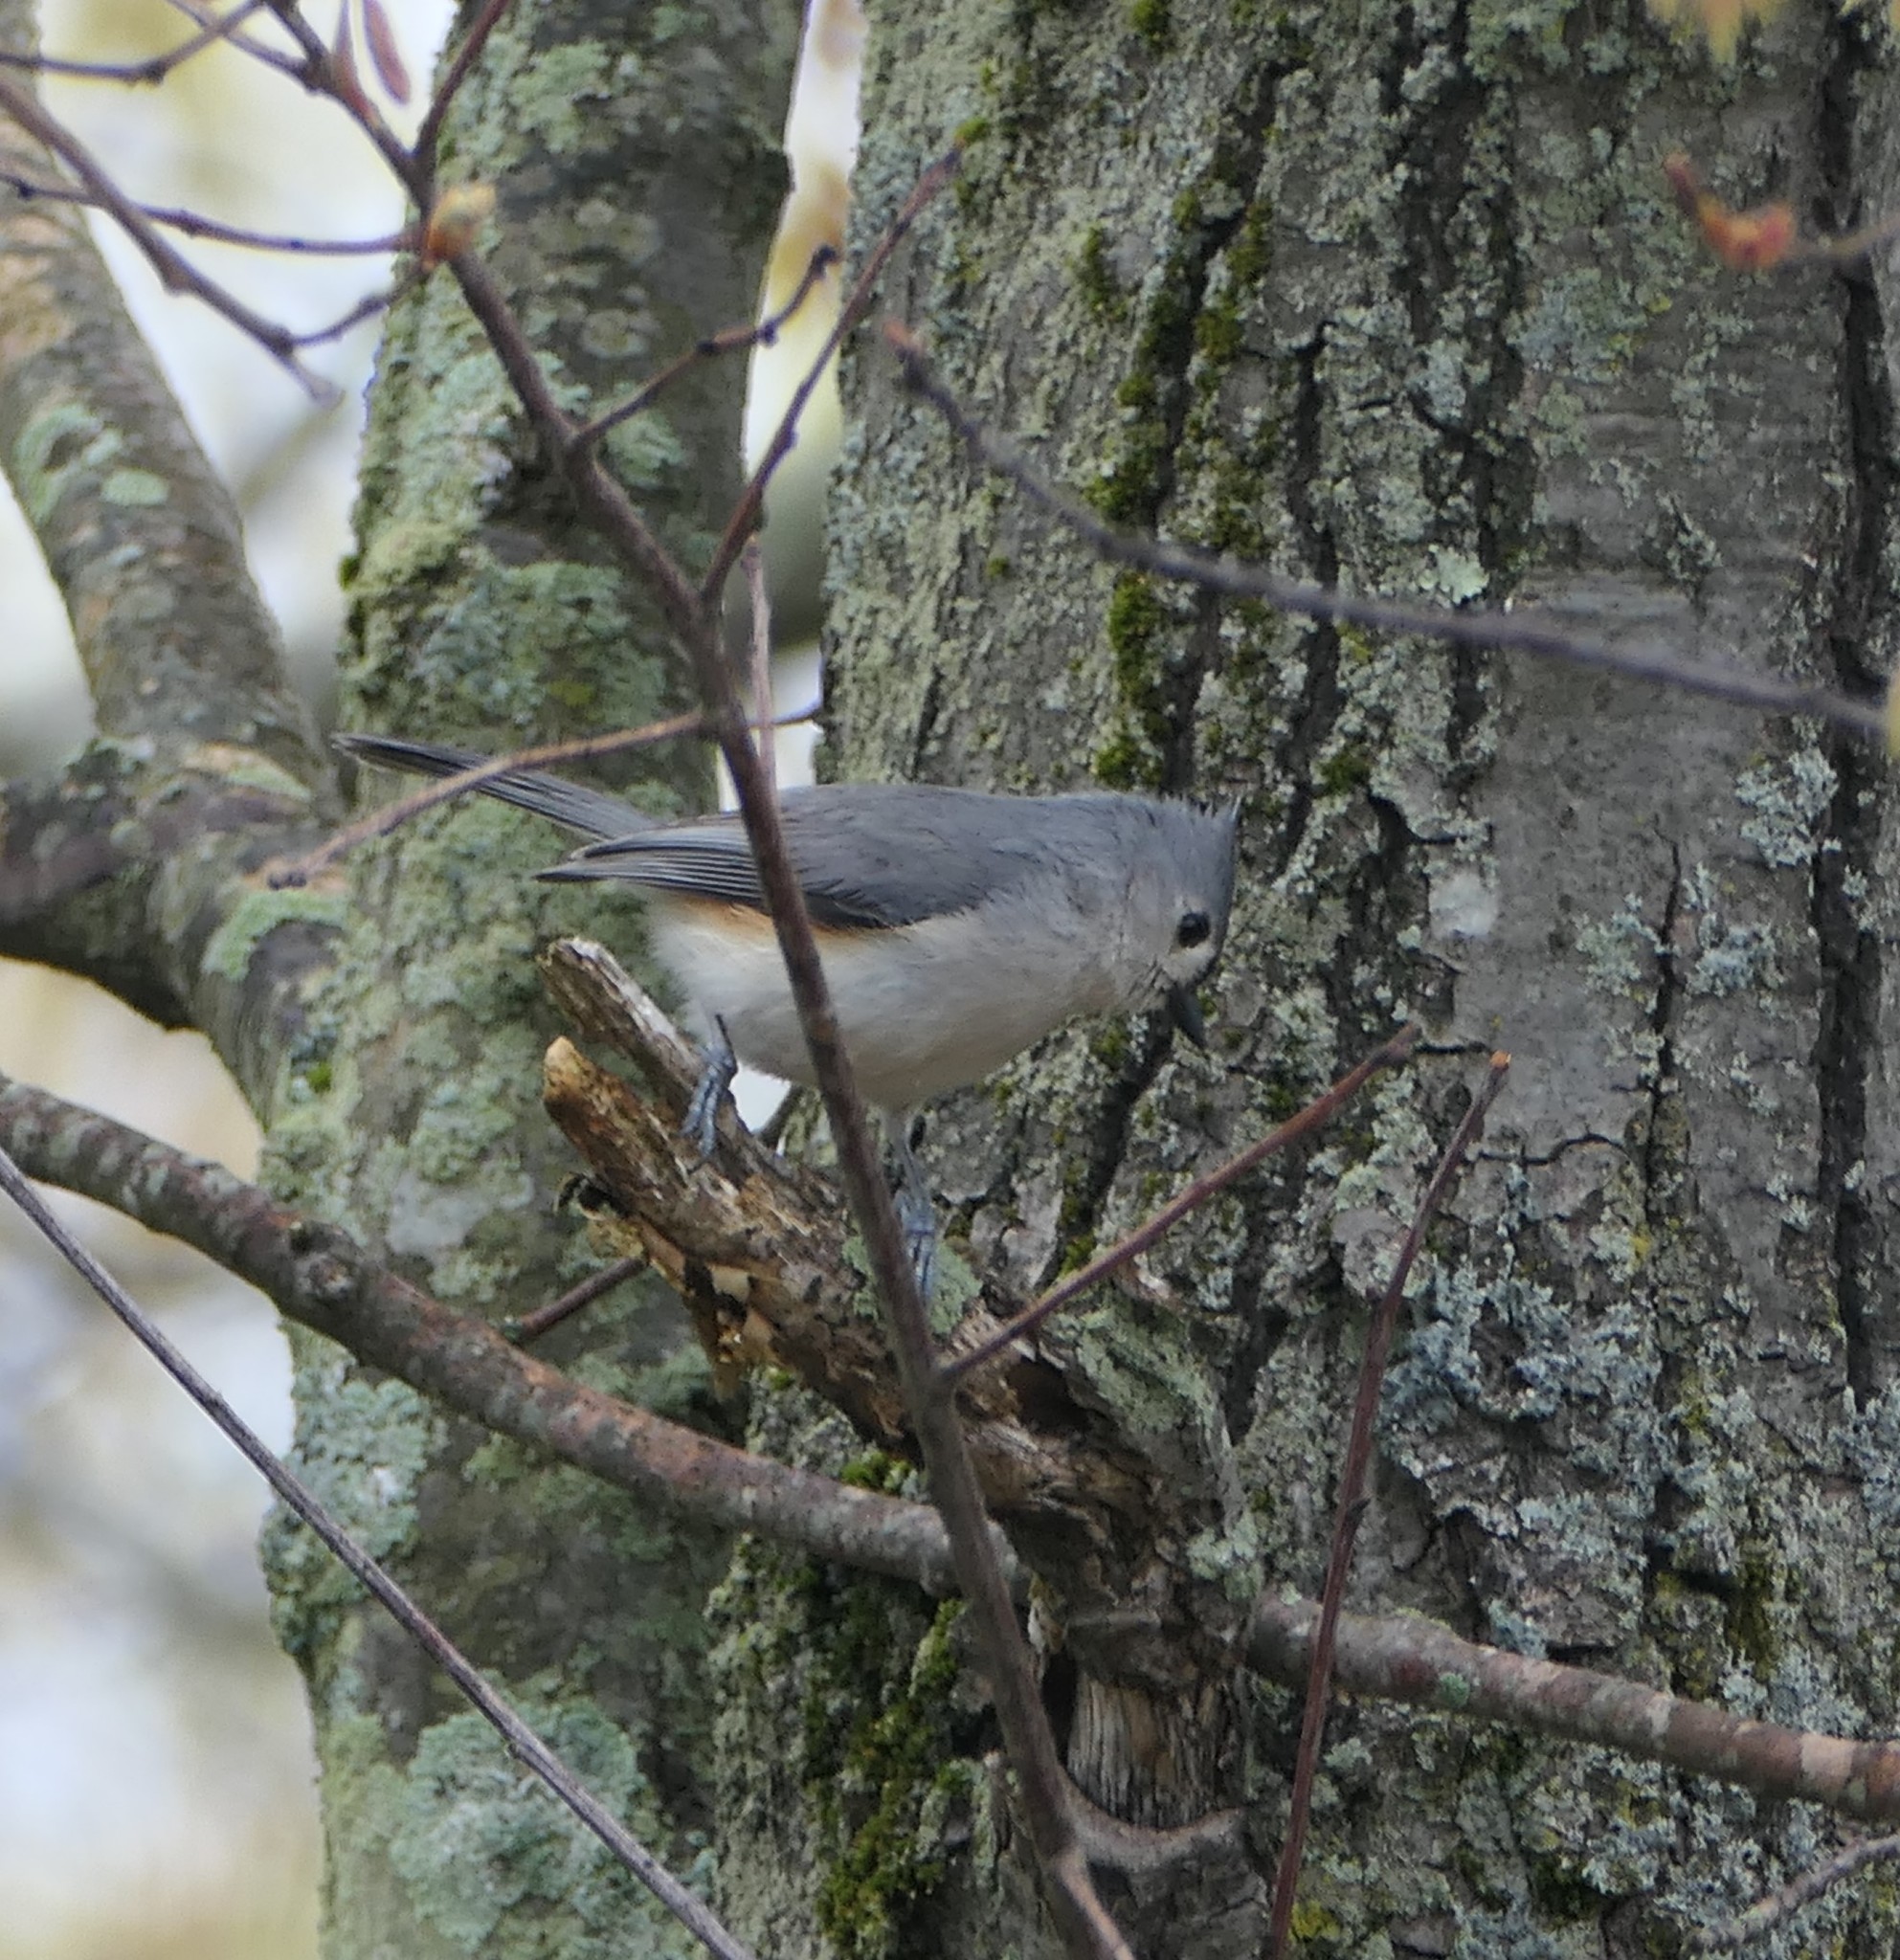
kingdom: Animalia
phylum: Chordata
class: Aves
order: Passeriformes
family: Paridae
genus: Baeolophus
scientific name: Baeolophus bicolor
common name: Tufted titmouse
